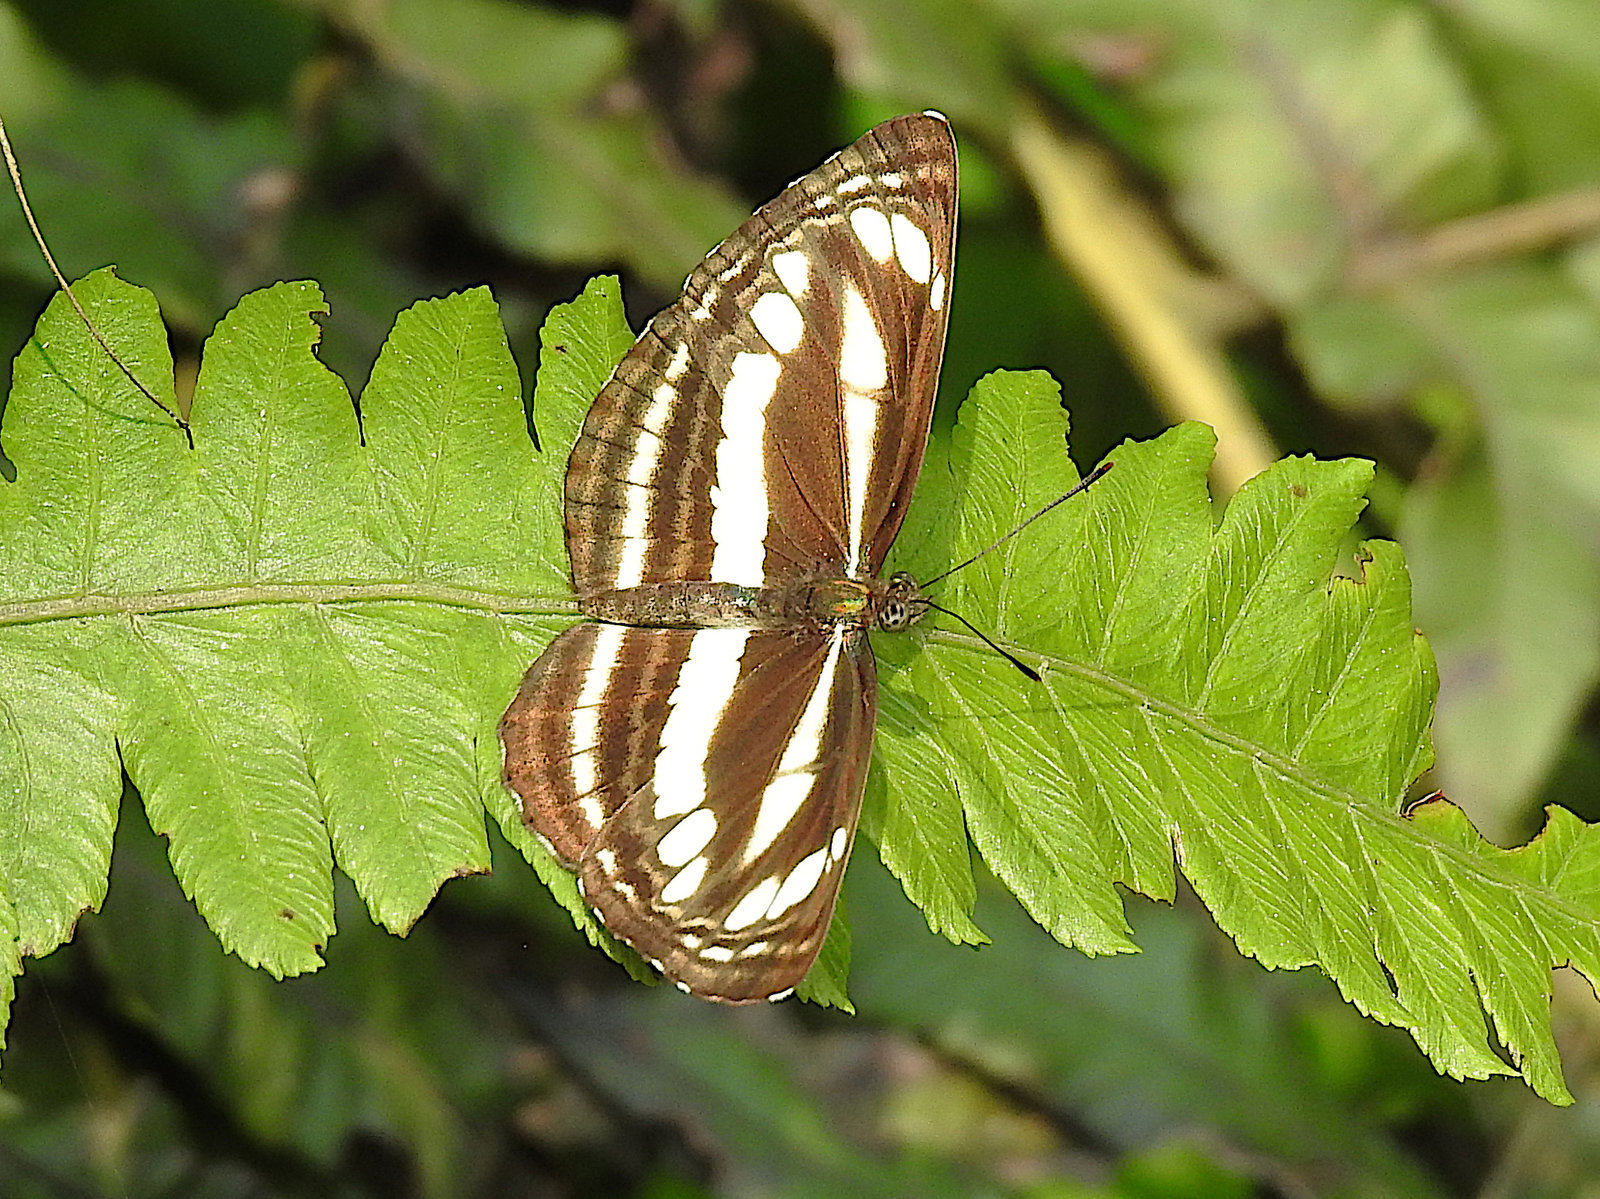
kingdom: Animalia
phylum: Arthropoda
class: Insecta
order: Lepidoptera
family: Nymphalidae
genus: Neptis
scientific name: Neptis clinia
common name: Southern sullied sailer
